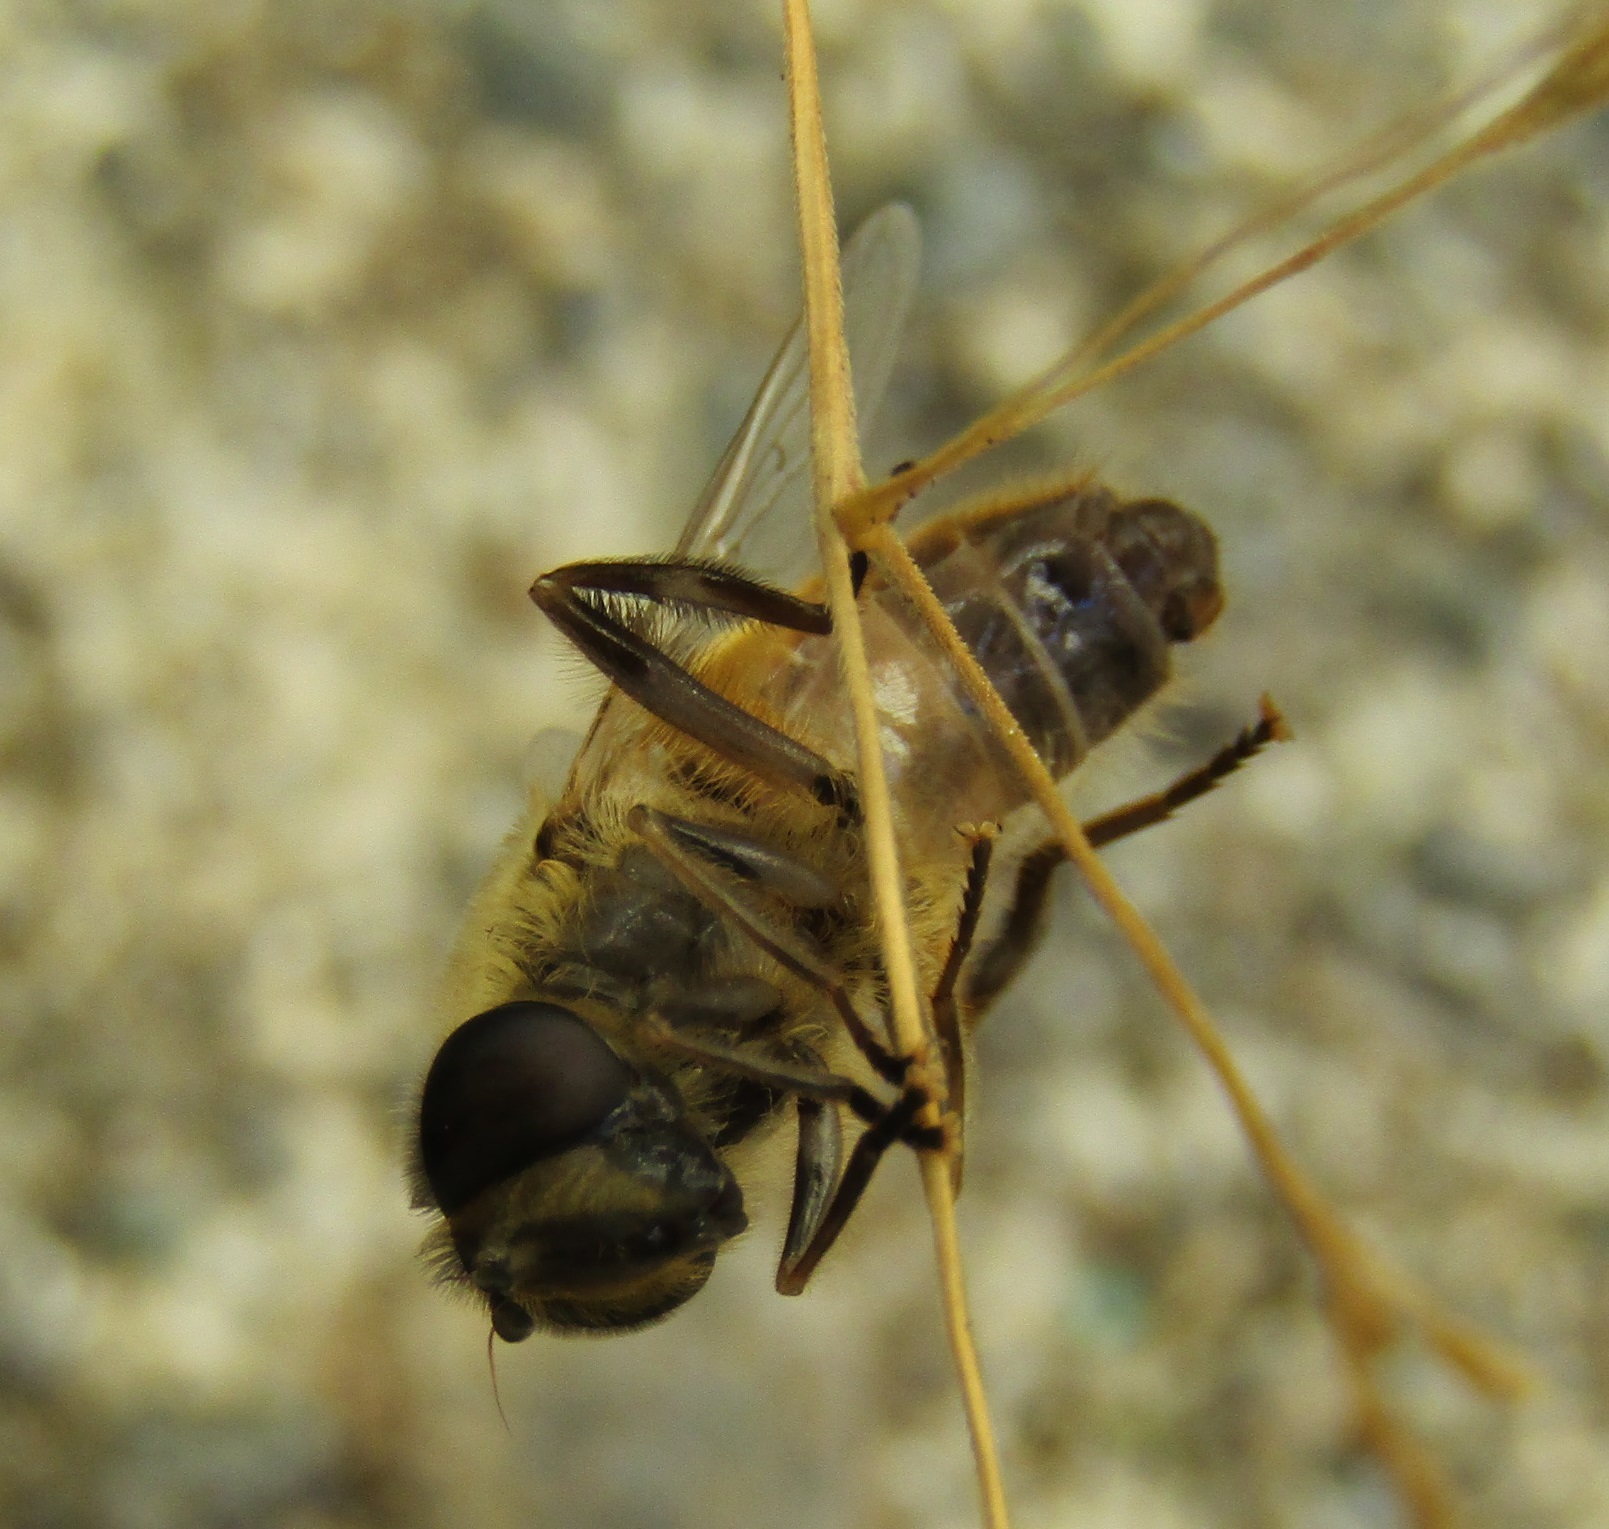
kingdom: Animalia
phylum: Arthropoda
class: Insecta
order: Diptera
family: Syrphidae
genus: Eristalis
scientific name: Eristalis tenax
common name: Drone fly
